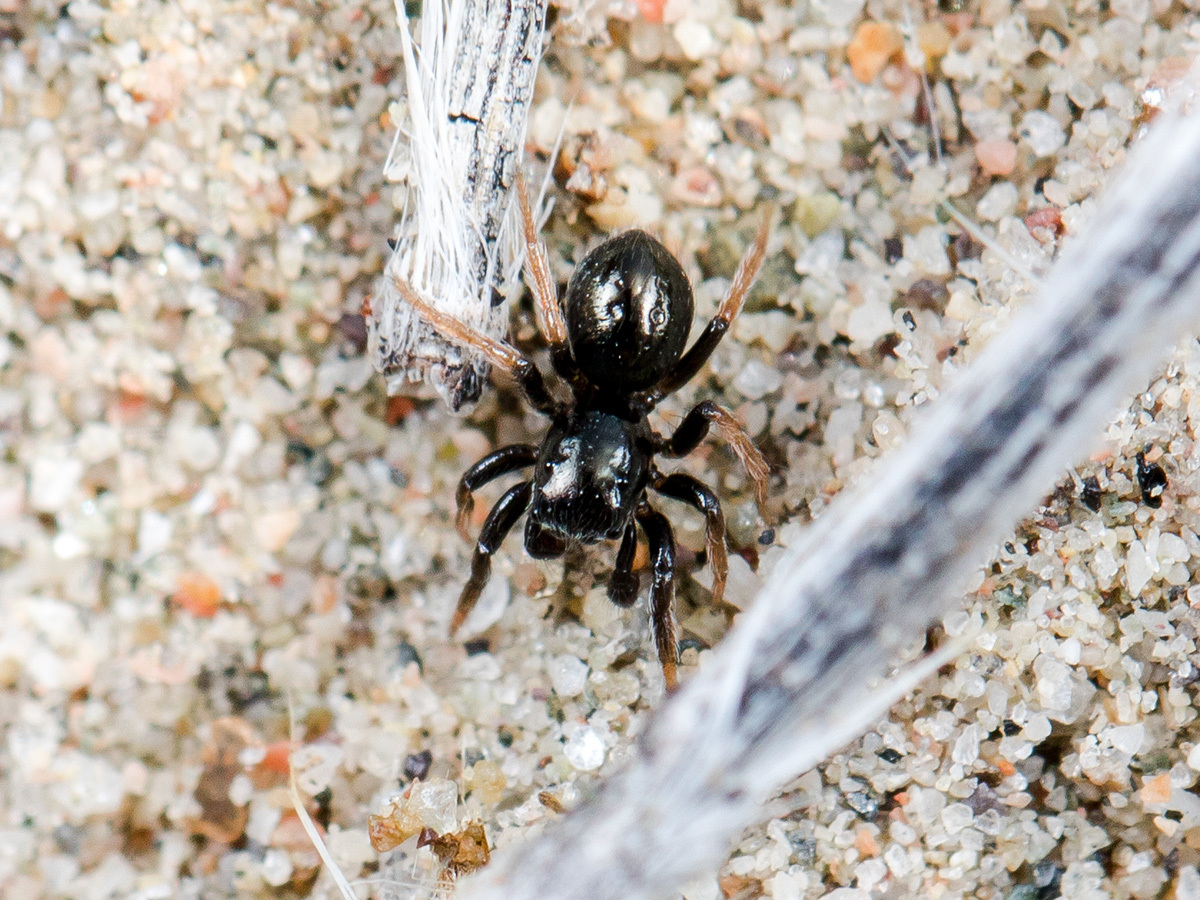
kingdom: Animalia
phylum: Arthropoda
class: Arachnida
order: Araneae
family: Salticidae
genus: Chalcoscirtus
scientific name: Chalcoscirtus karakurt
